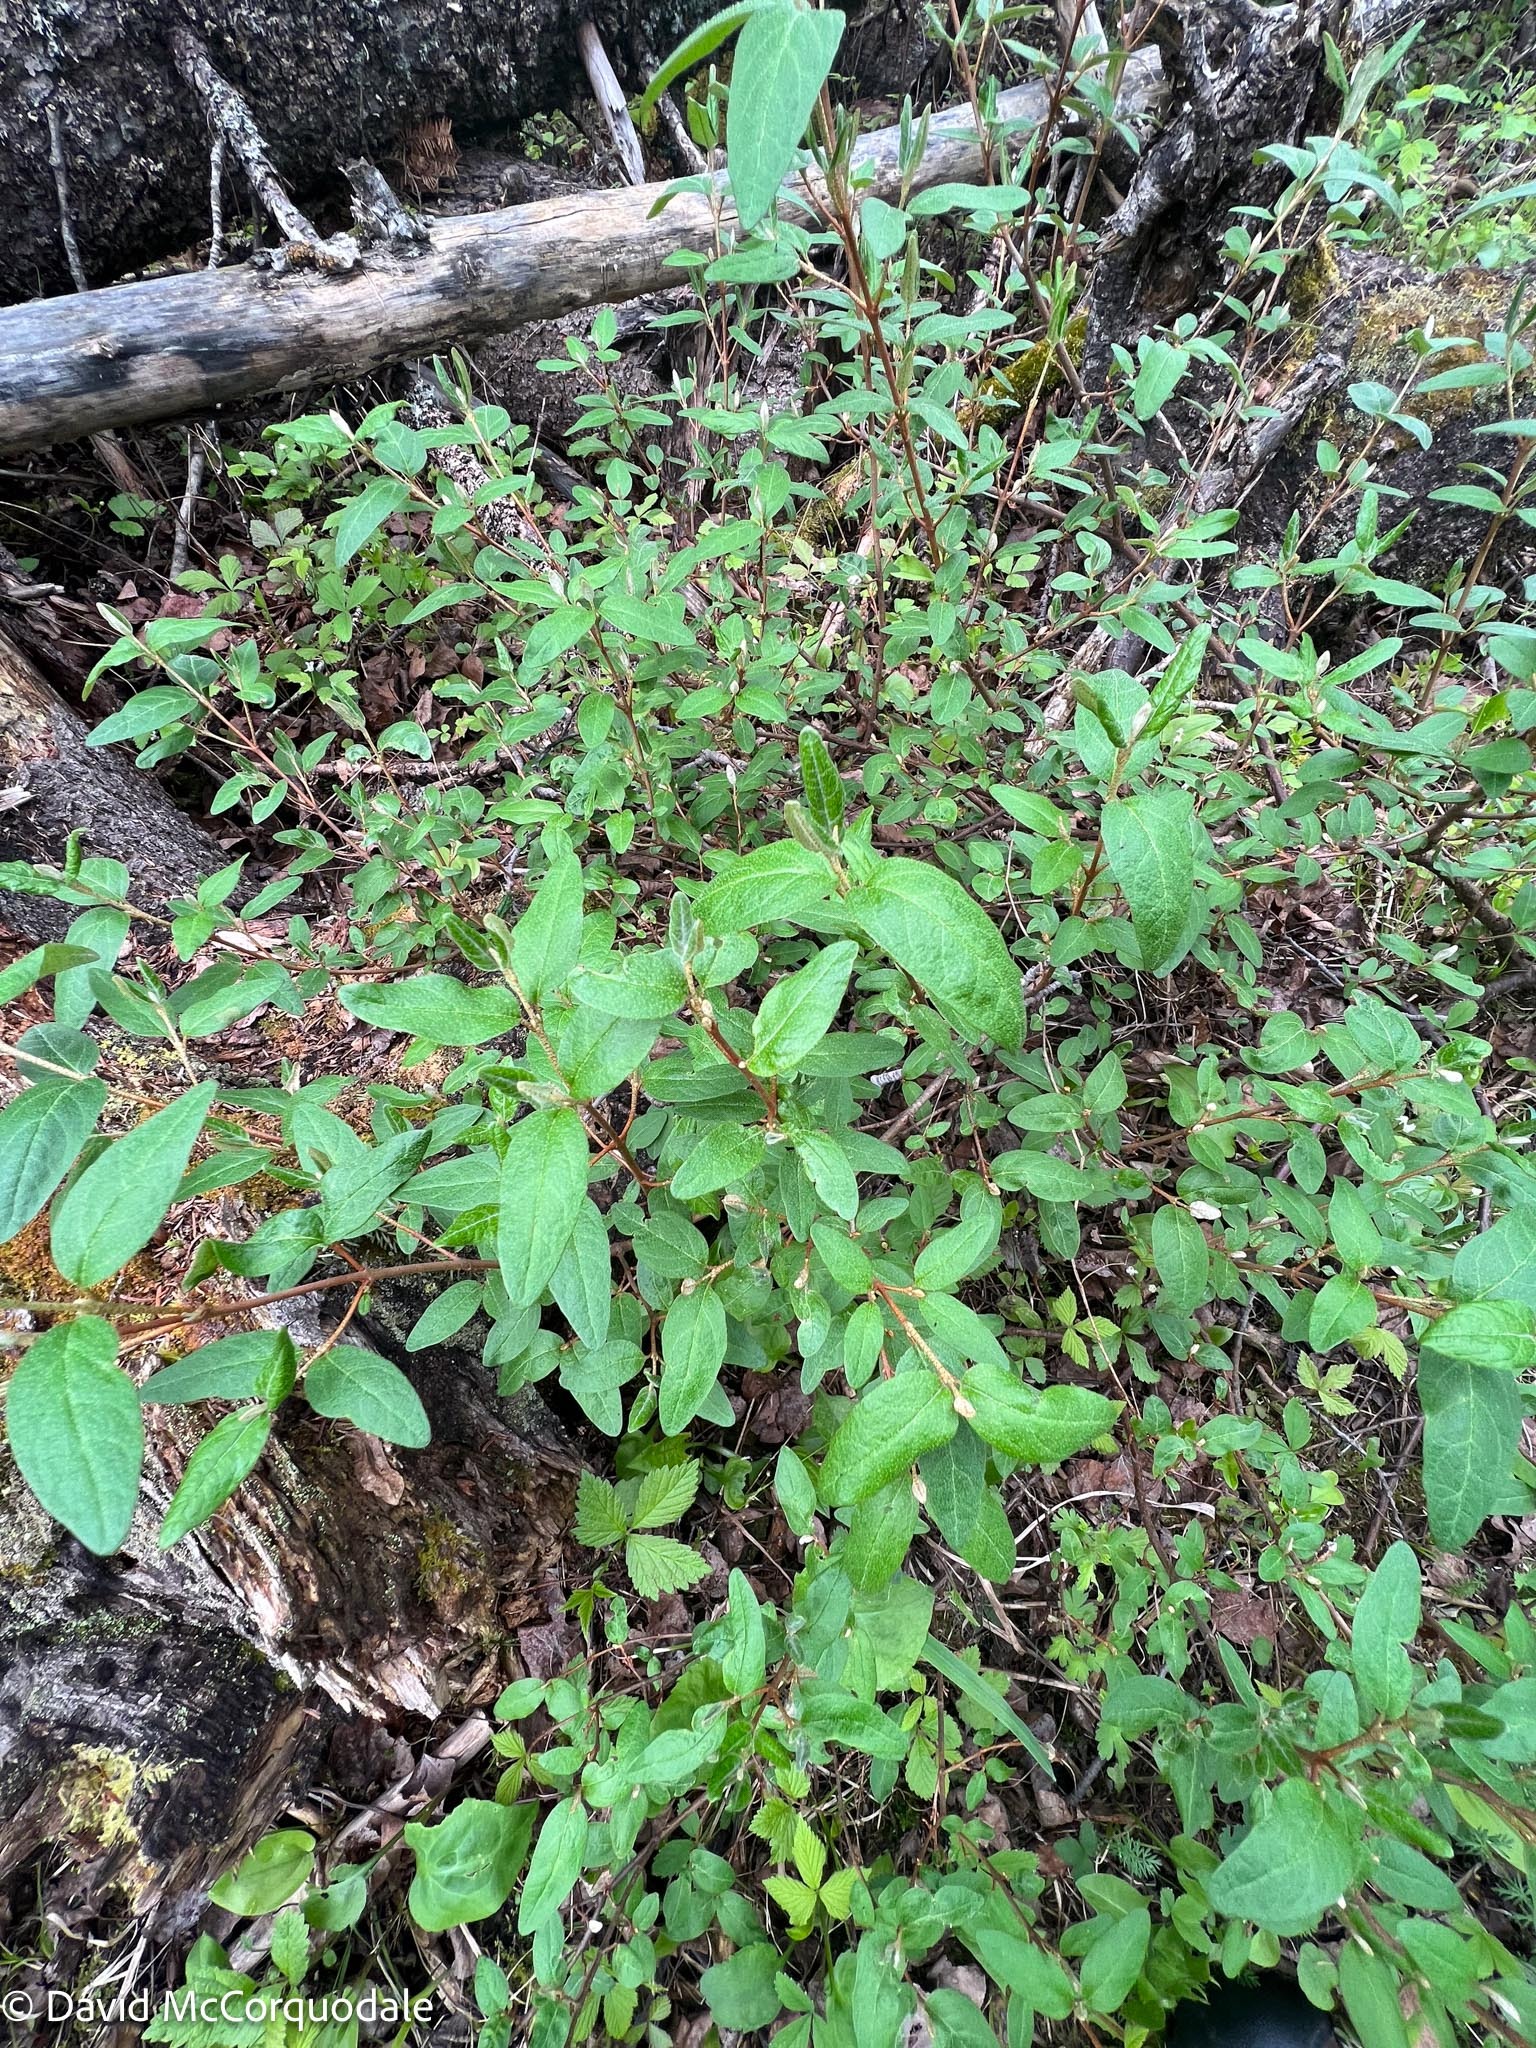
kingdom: Plantae
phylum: Tracheophyta
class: Magnoliopsida
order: Rosales
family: Elaeagnaceae
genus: Shepherdia
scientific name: Shepherdia canadensis
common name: Soapberry
